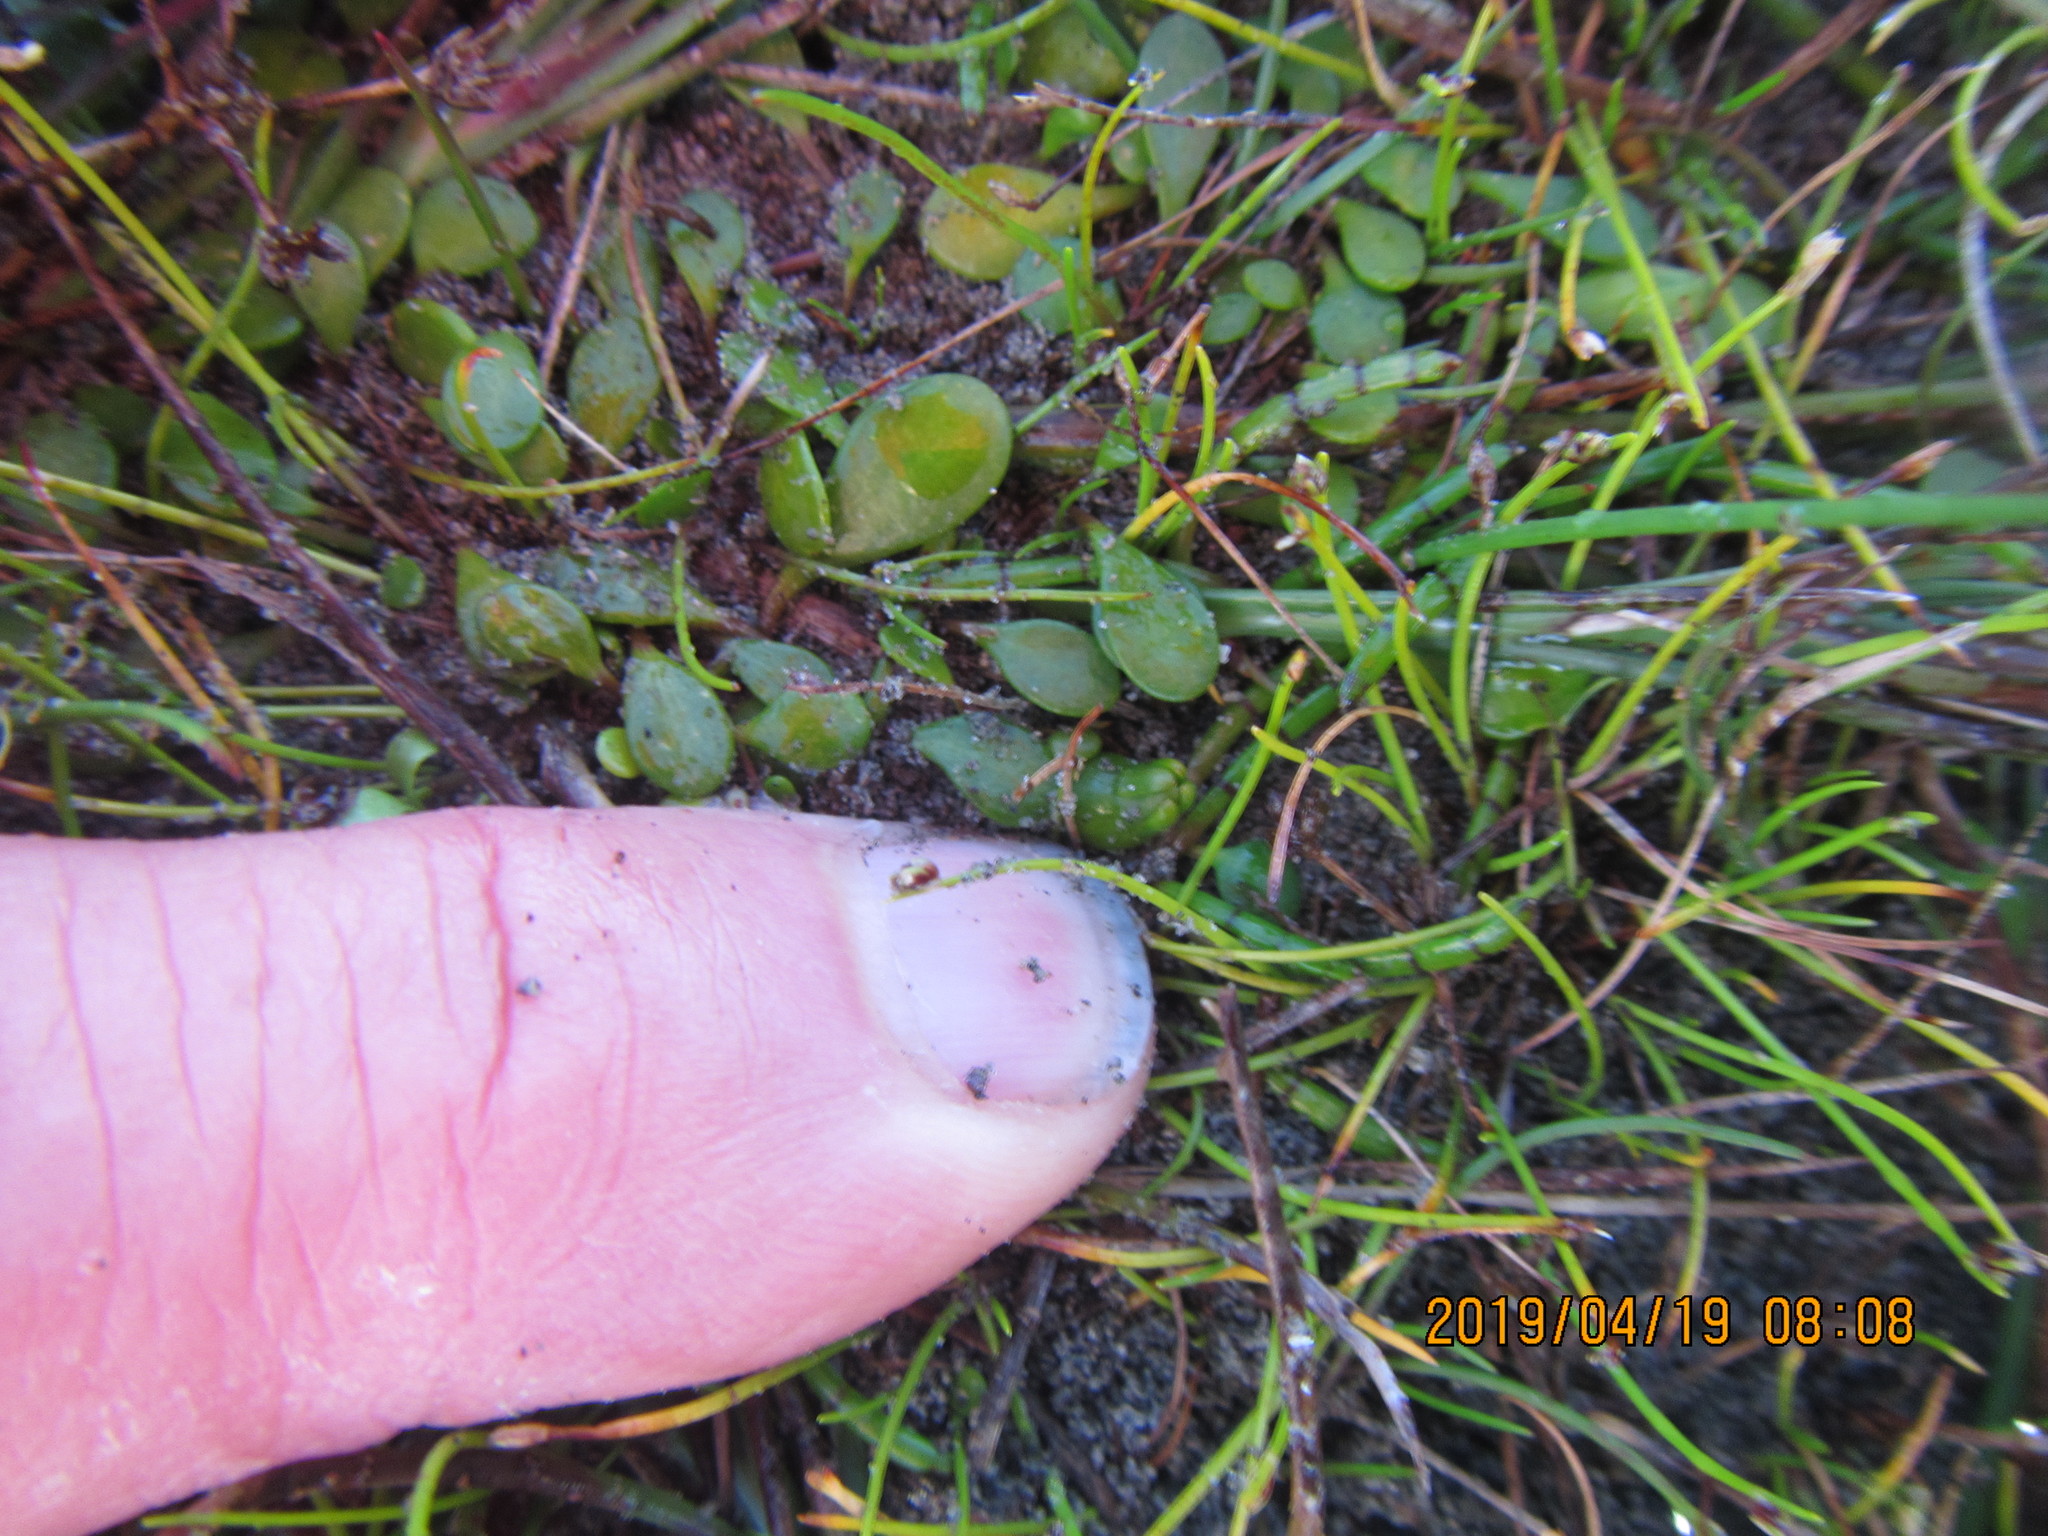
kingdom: Plantae
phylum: Tracheophyta
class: Magnoliopsida
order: Asterales
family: Goodeniaceae
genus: Goodenia
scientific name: Goodenia radicans
